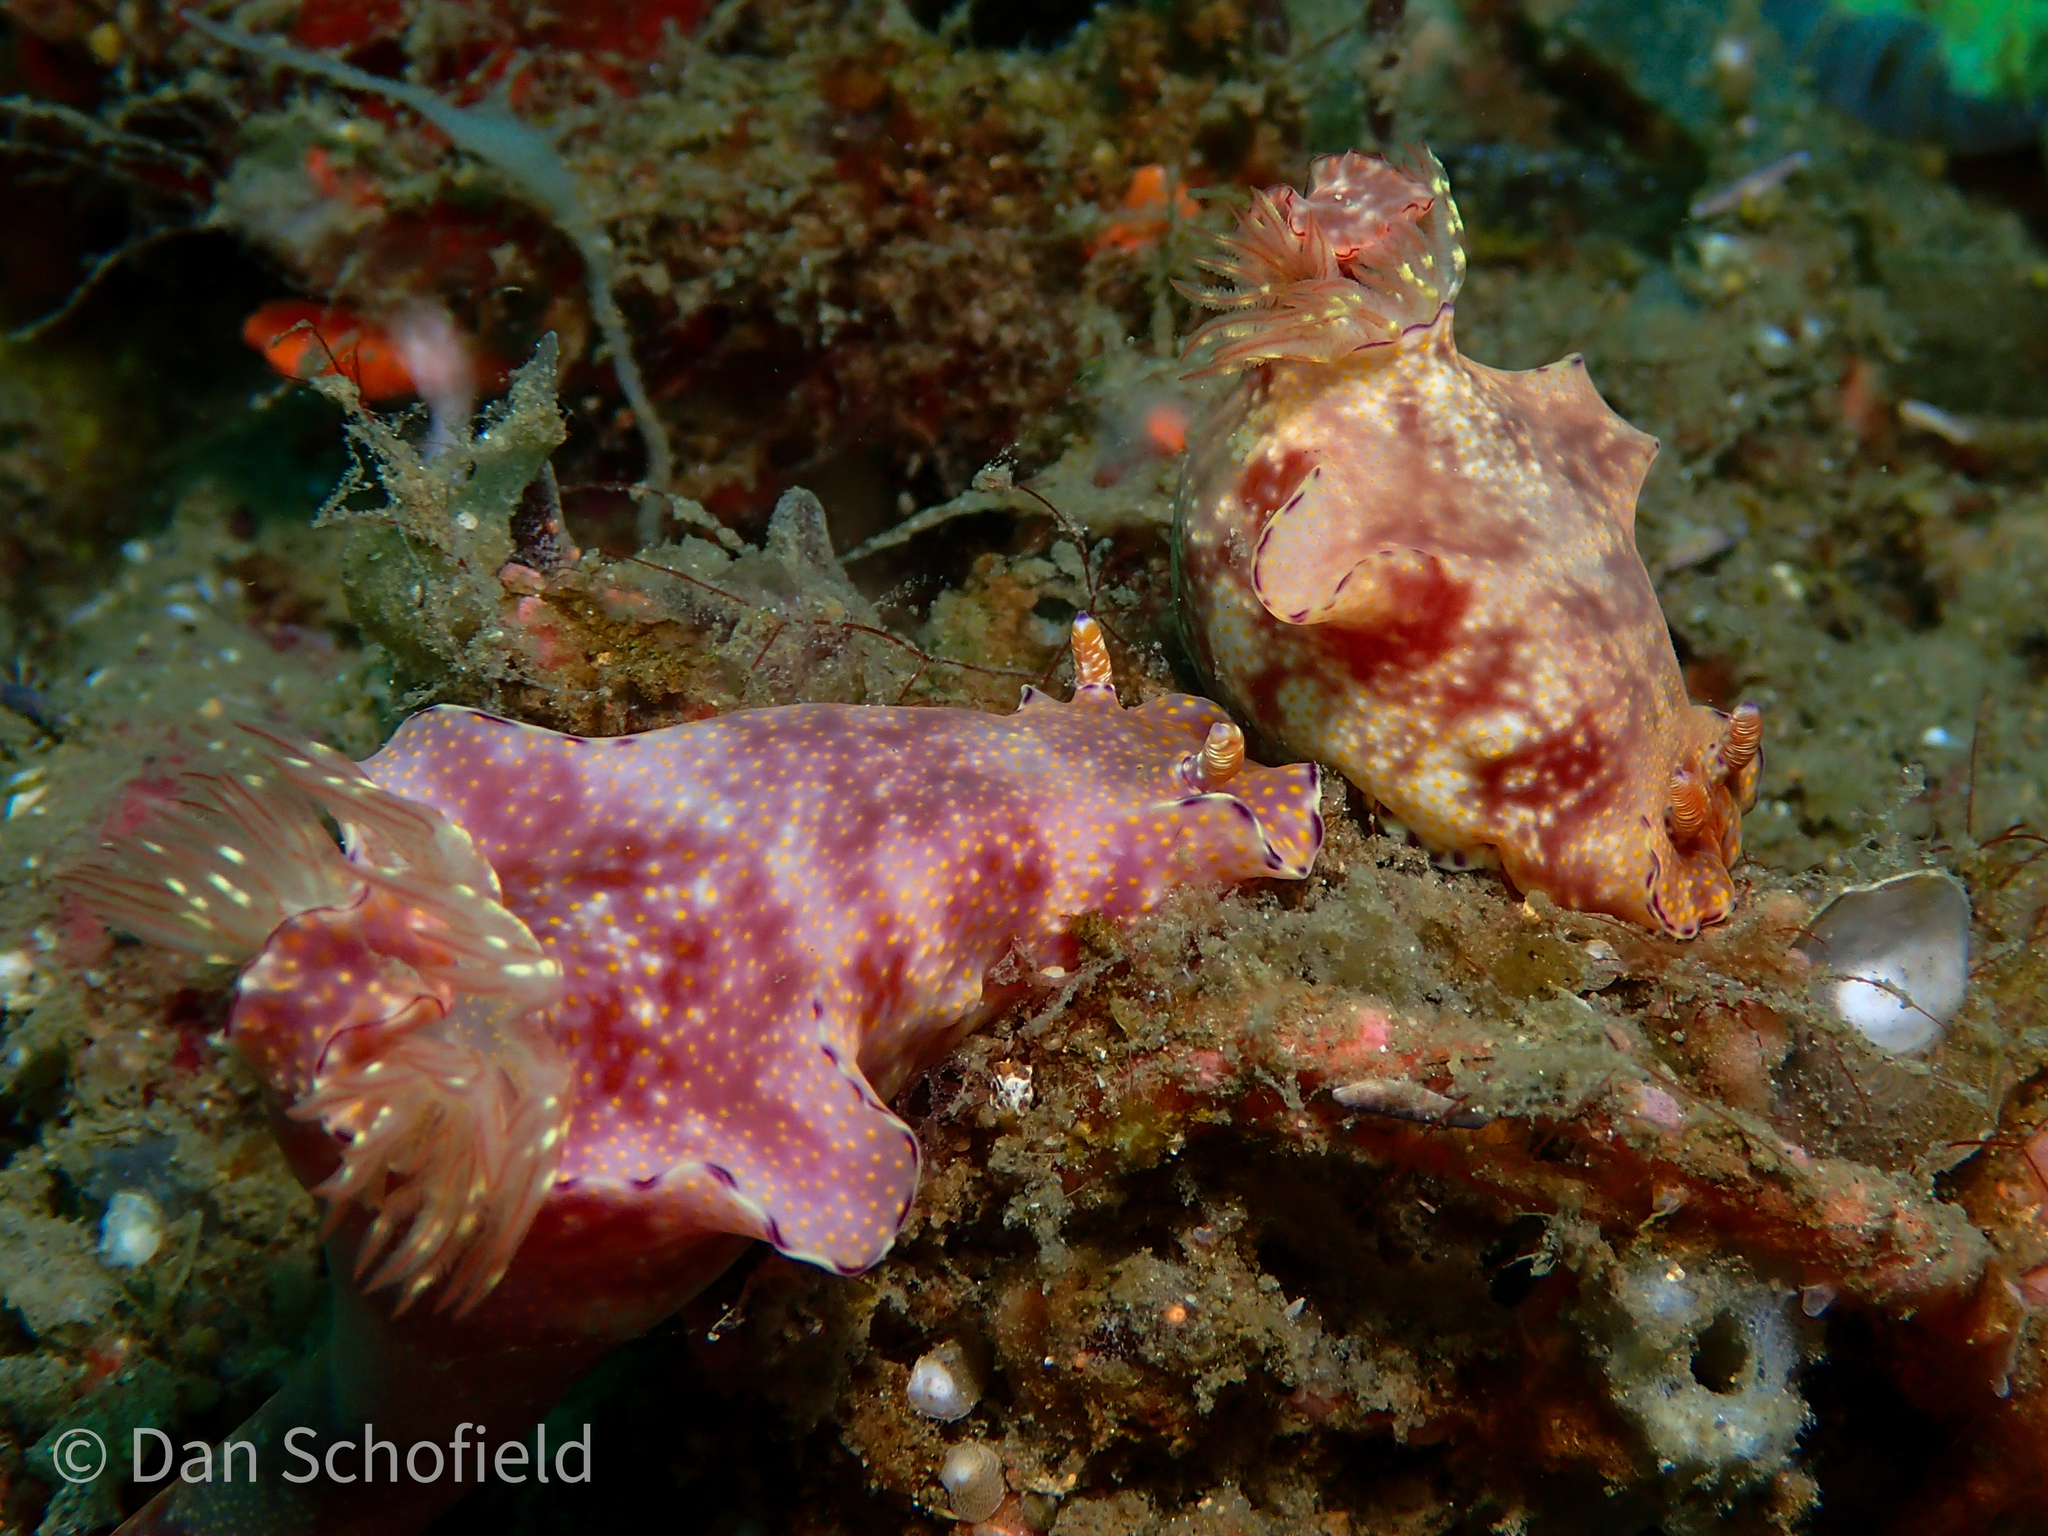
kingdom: Animalia
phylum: Mollusca
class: Gastropoda
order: Nudibranchia
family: Chromodorididae
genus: Ceratosoma
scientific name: Ceratosoma gracillimum
